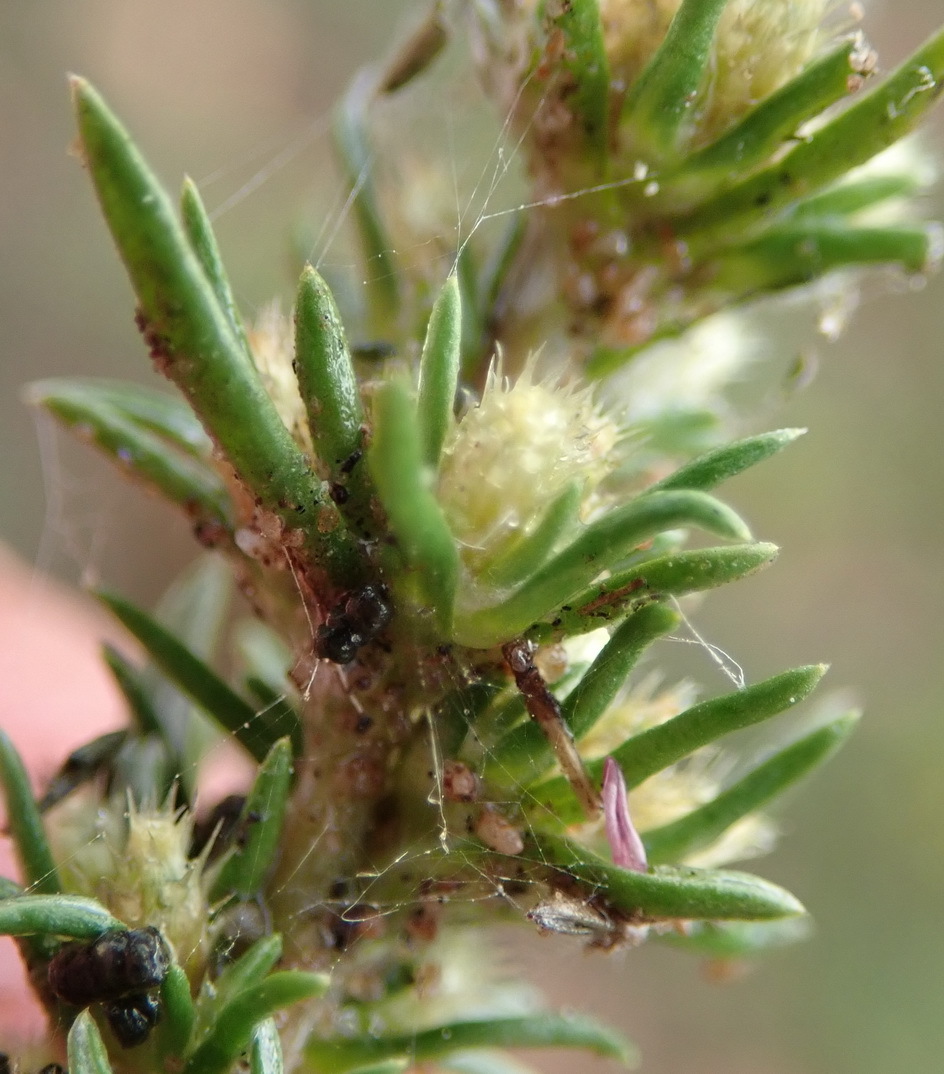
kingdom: Plantae
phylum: Tracheophyta
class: Magnoliopsida
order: Asterales
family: Asteraceae
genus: Ifloga
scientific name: Ifloga glomerata
